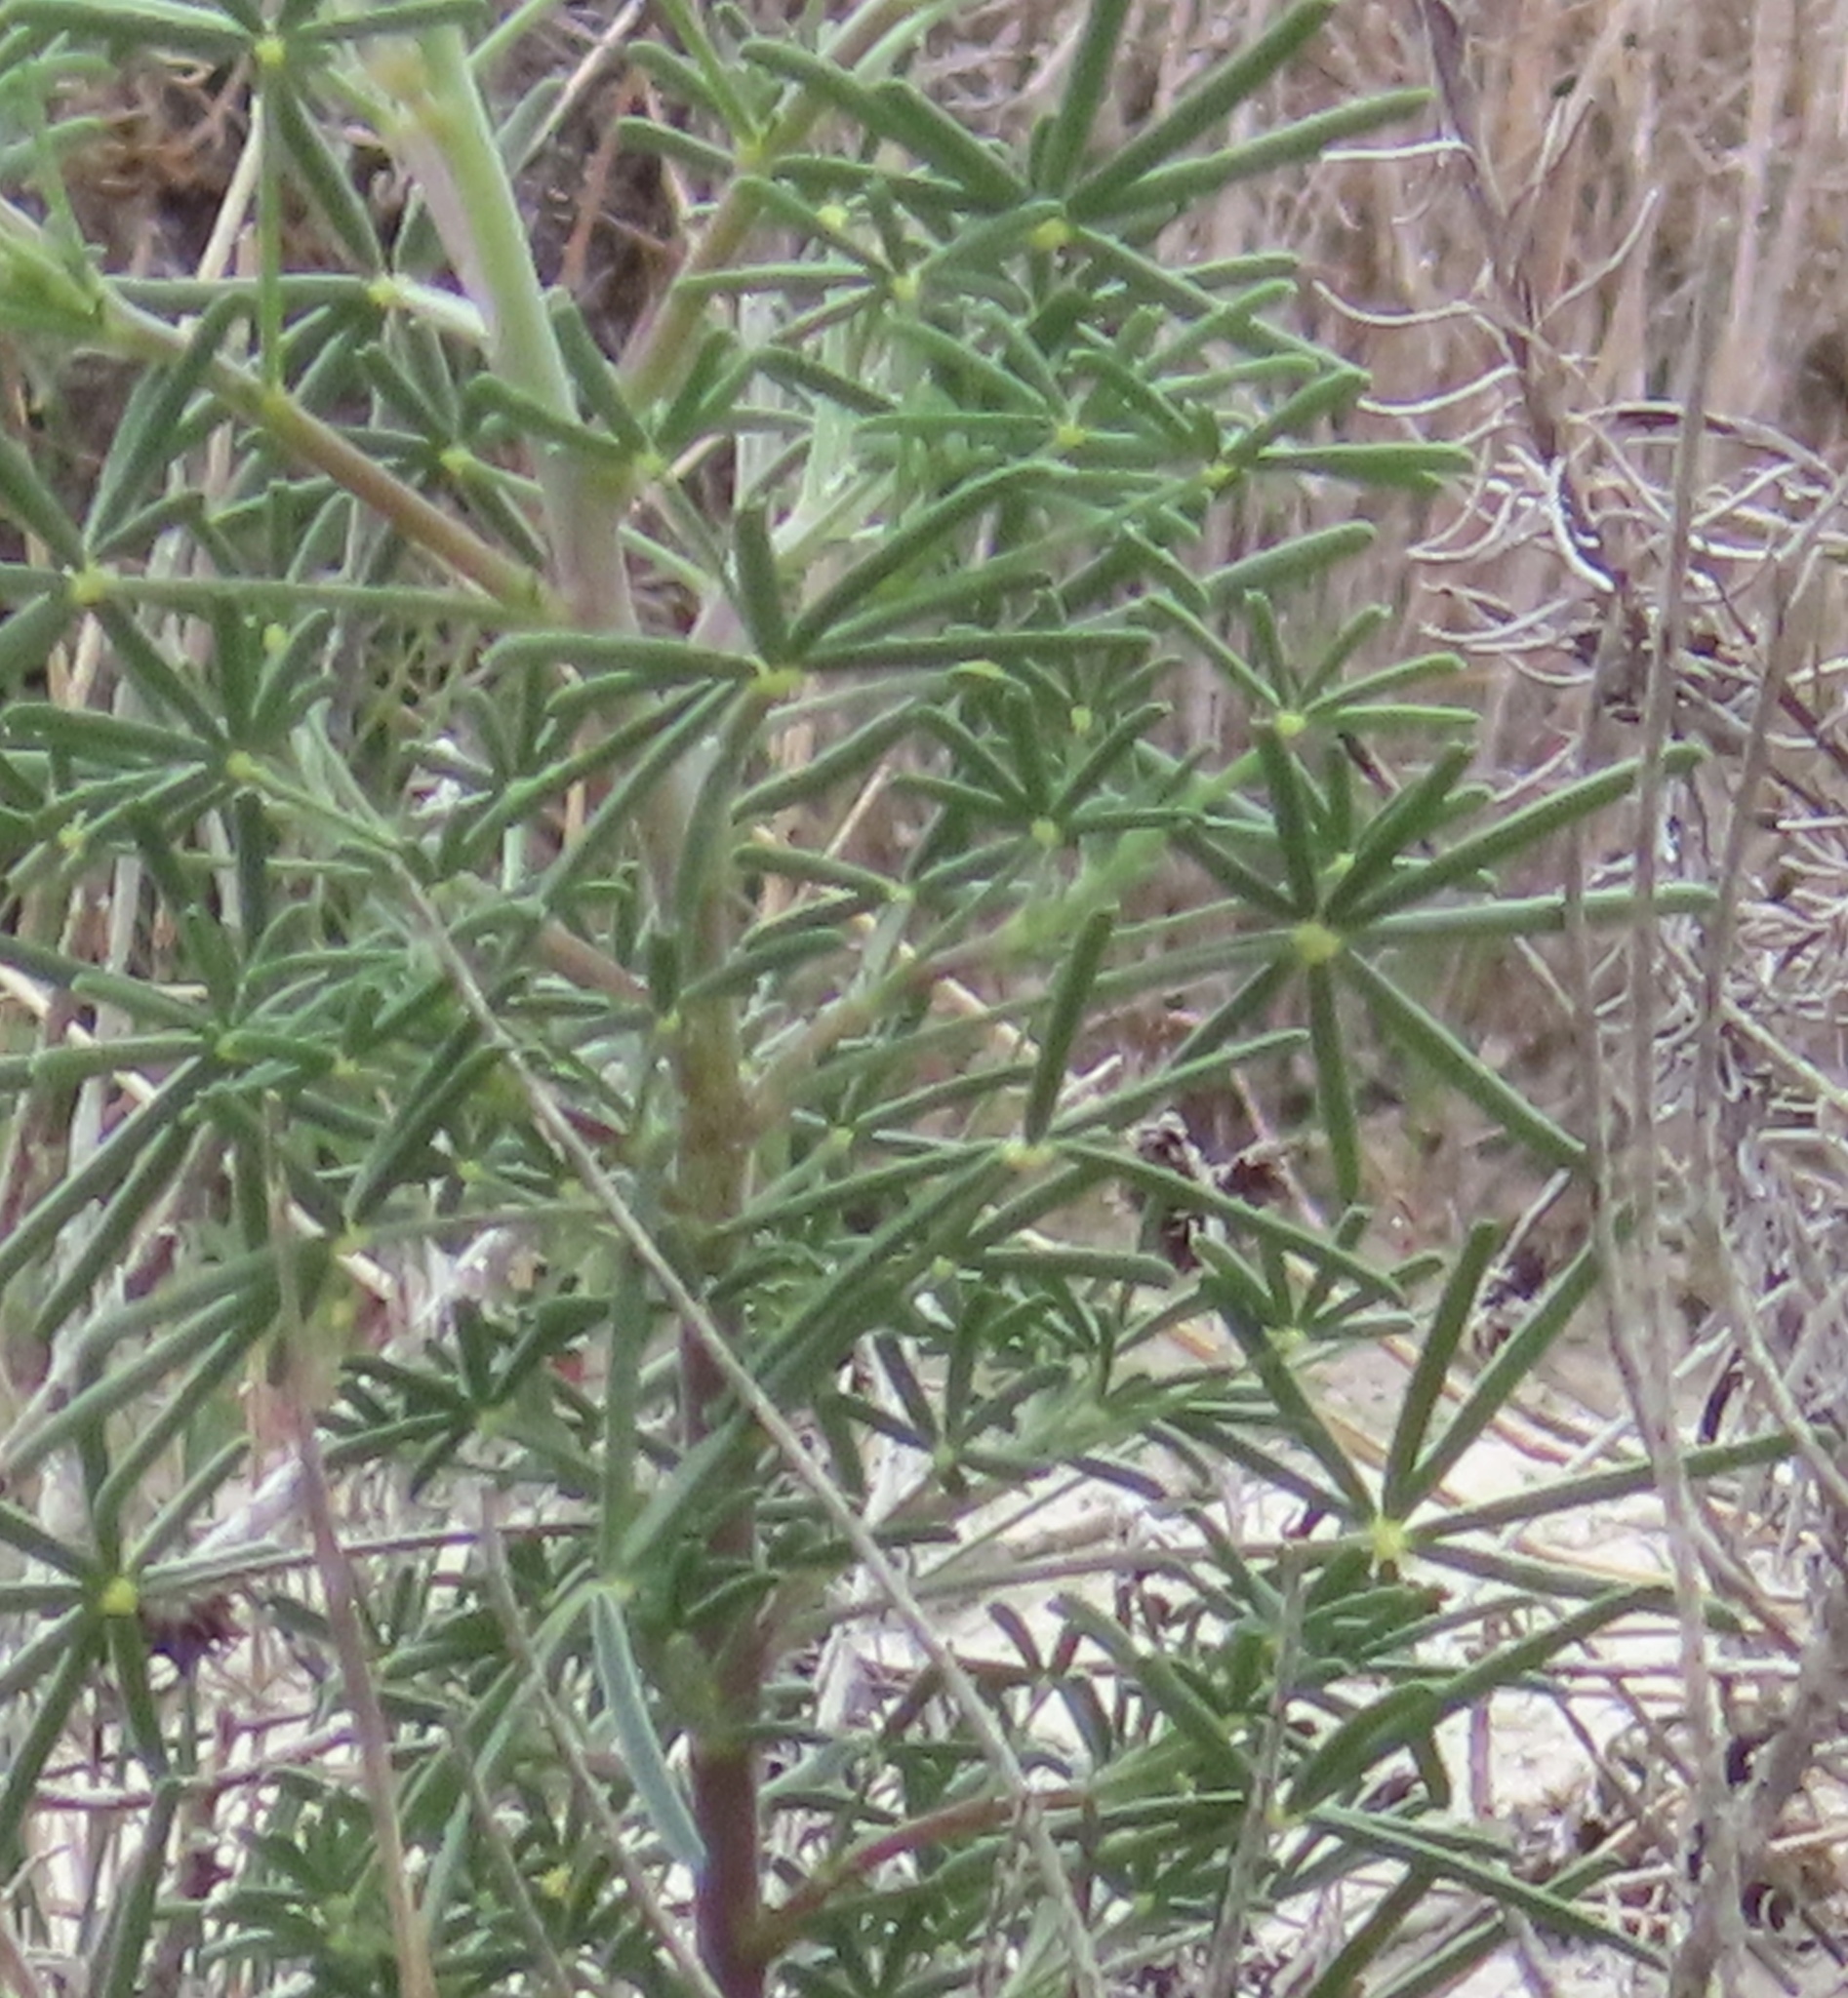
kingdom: Plantae
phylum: Tracheophyta
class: Magnoliopsida
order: Fabales
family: Fabaceae
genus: Lupinus
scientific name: Lupinus angustifolius
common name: Narrow-leaved lupin
